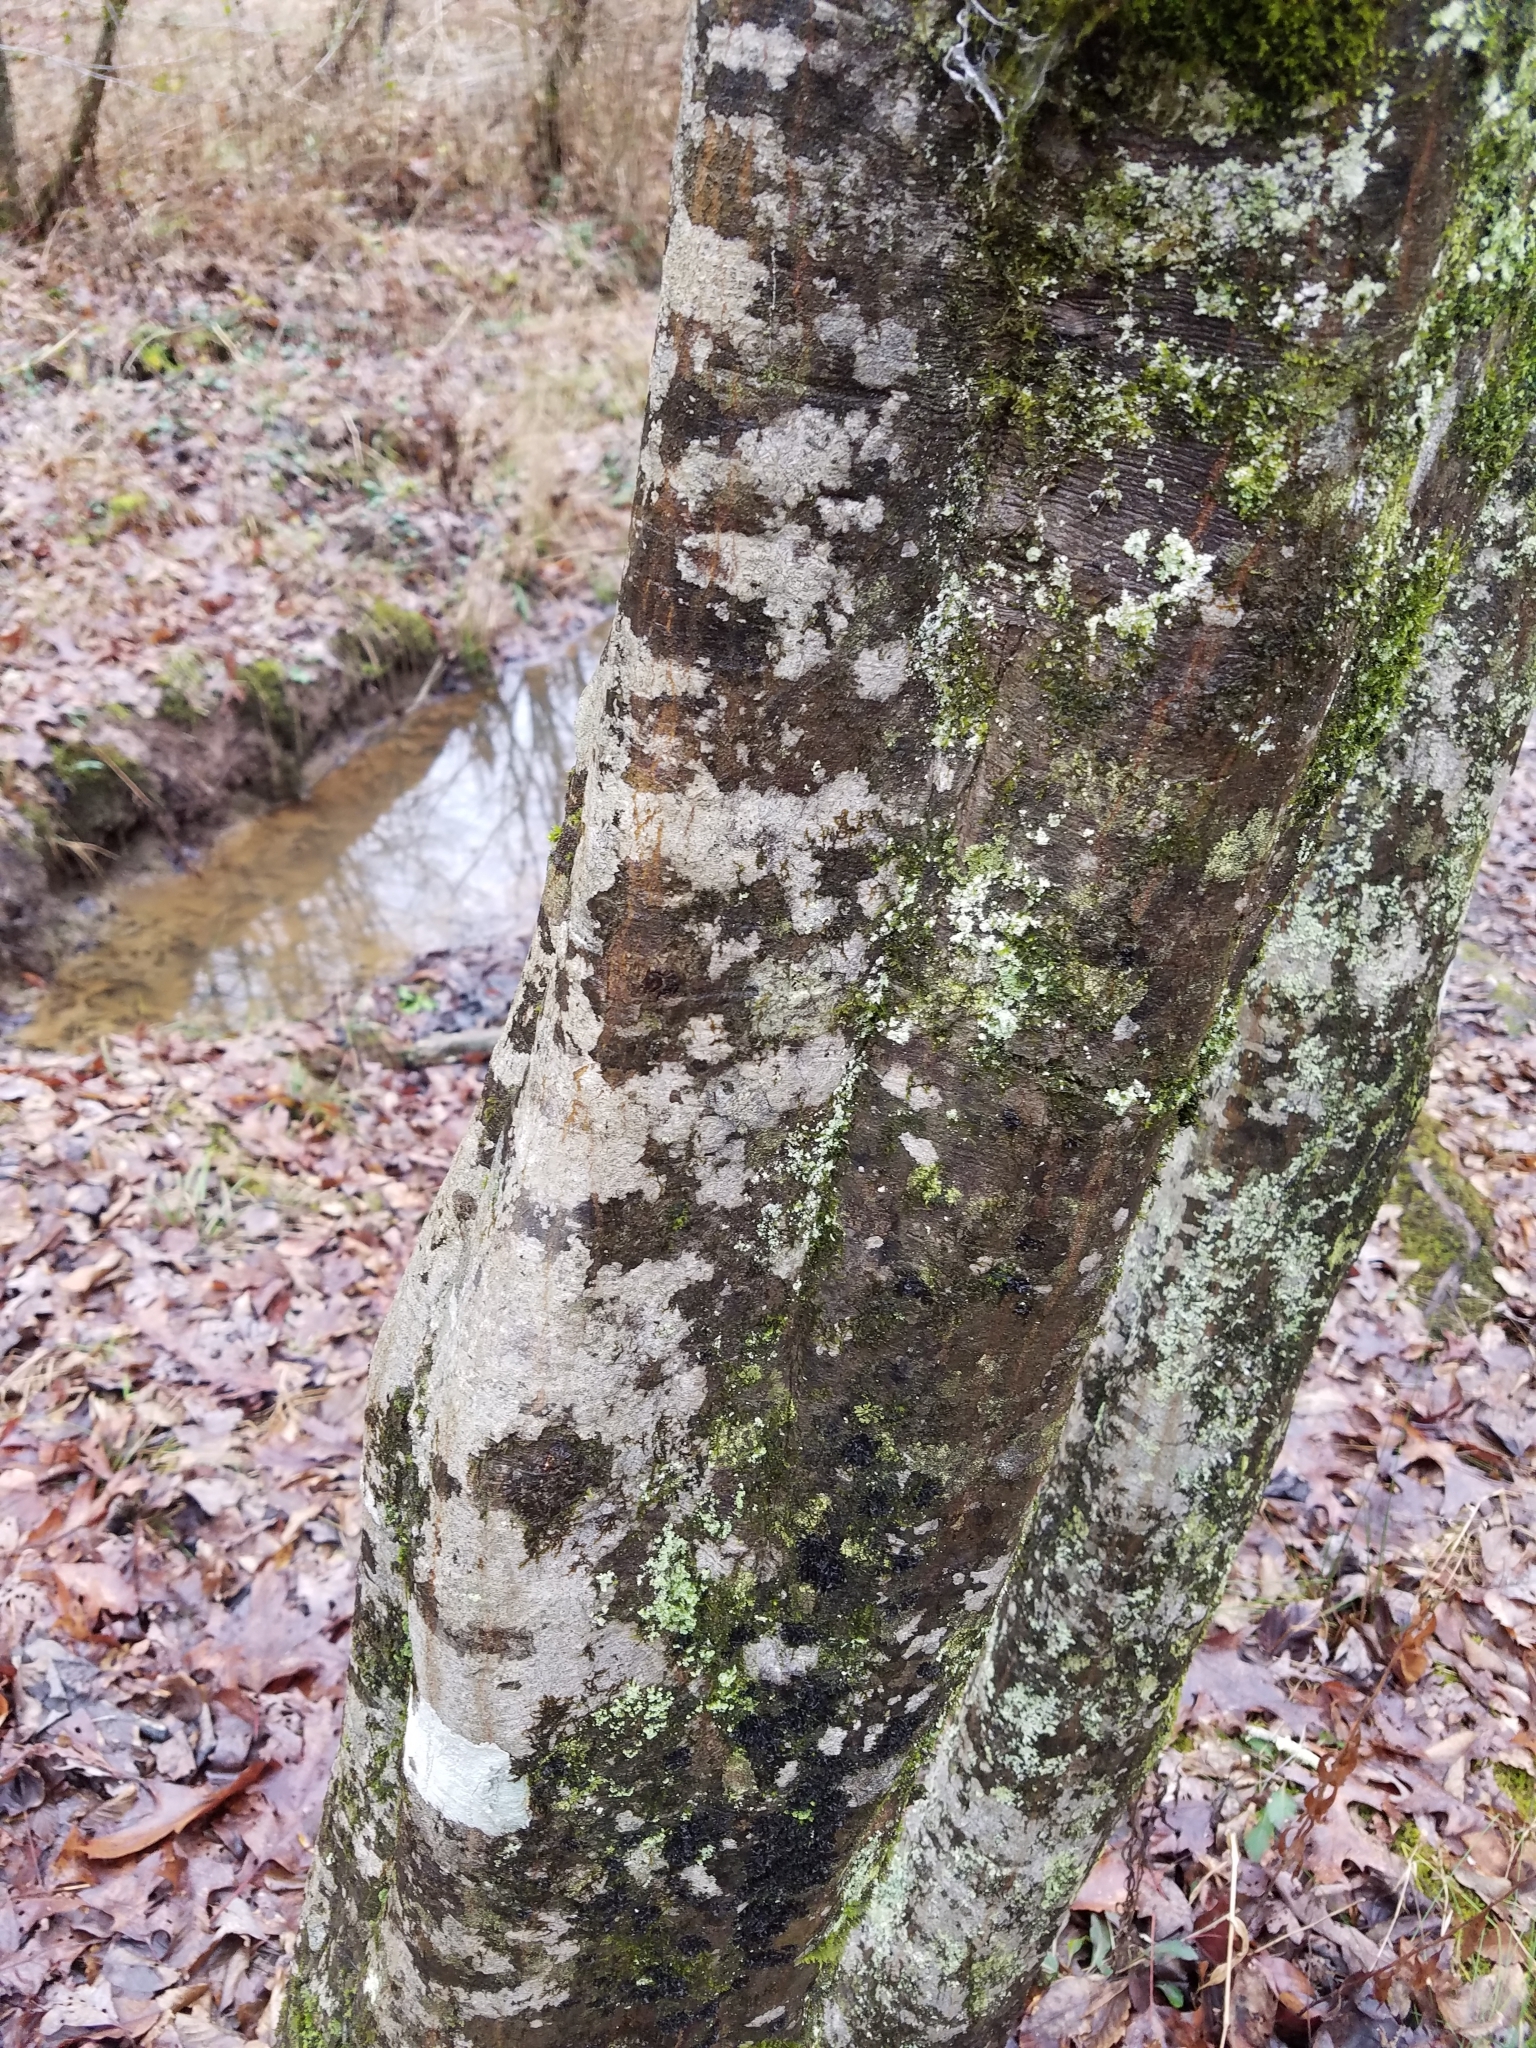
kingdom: Plantae
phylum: Tracheophyta
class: Magnoliopsida
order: Fagales
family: Betulaceae
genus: Carpinus
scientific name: Carpinus caroliniana
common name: American hornbeam
